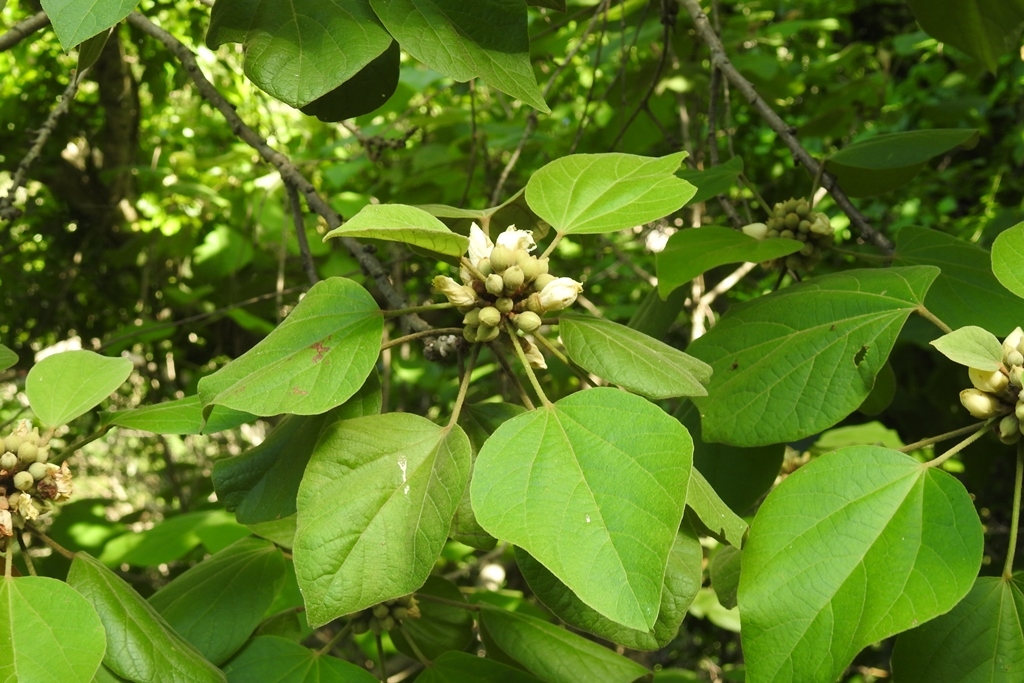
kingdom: Plantae
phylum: Tracheophyta
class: Magnoliopsida
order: Malvales
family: Malvaceae
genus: Hampea
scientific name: Hampea longipes
